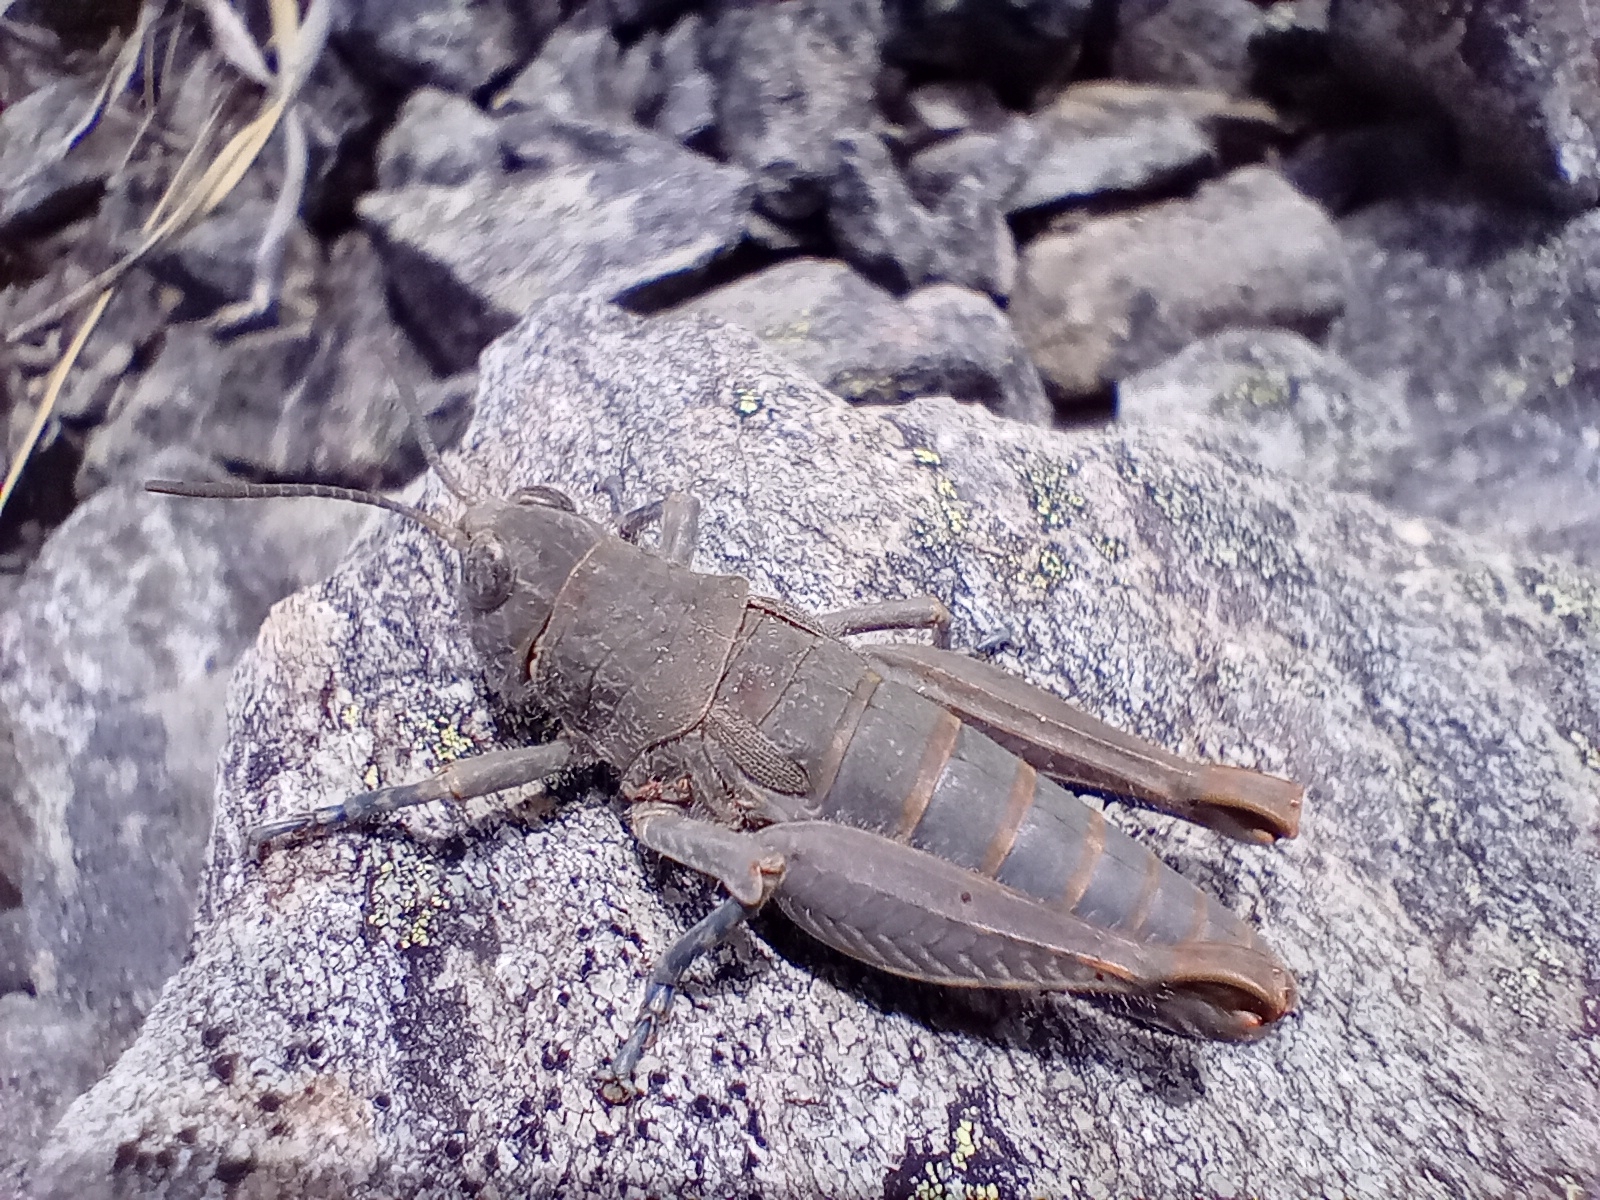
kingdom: Animalia
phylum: Arthropoda
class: Insecta
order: Orthoptera
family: Acrididae
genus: Sigaus
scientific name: Sigaus
